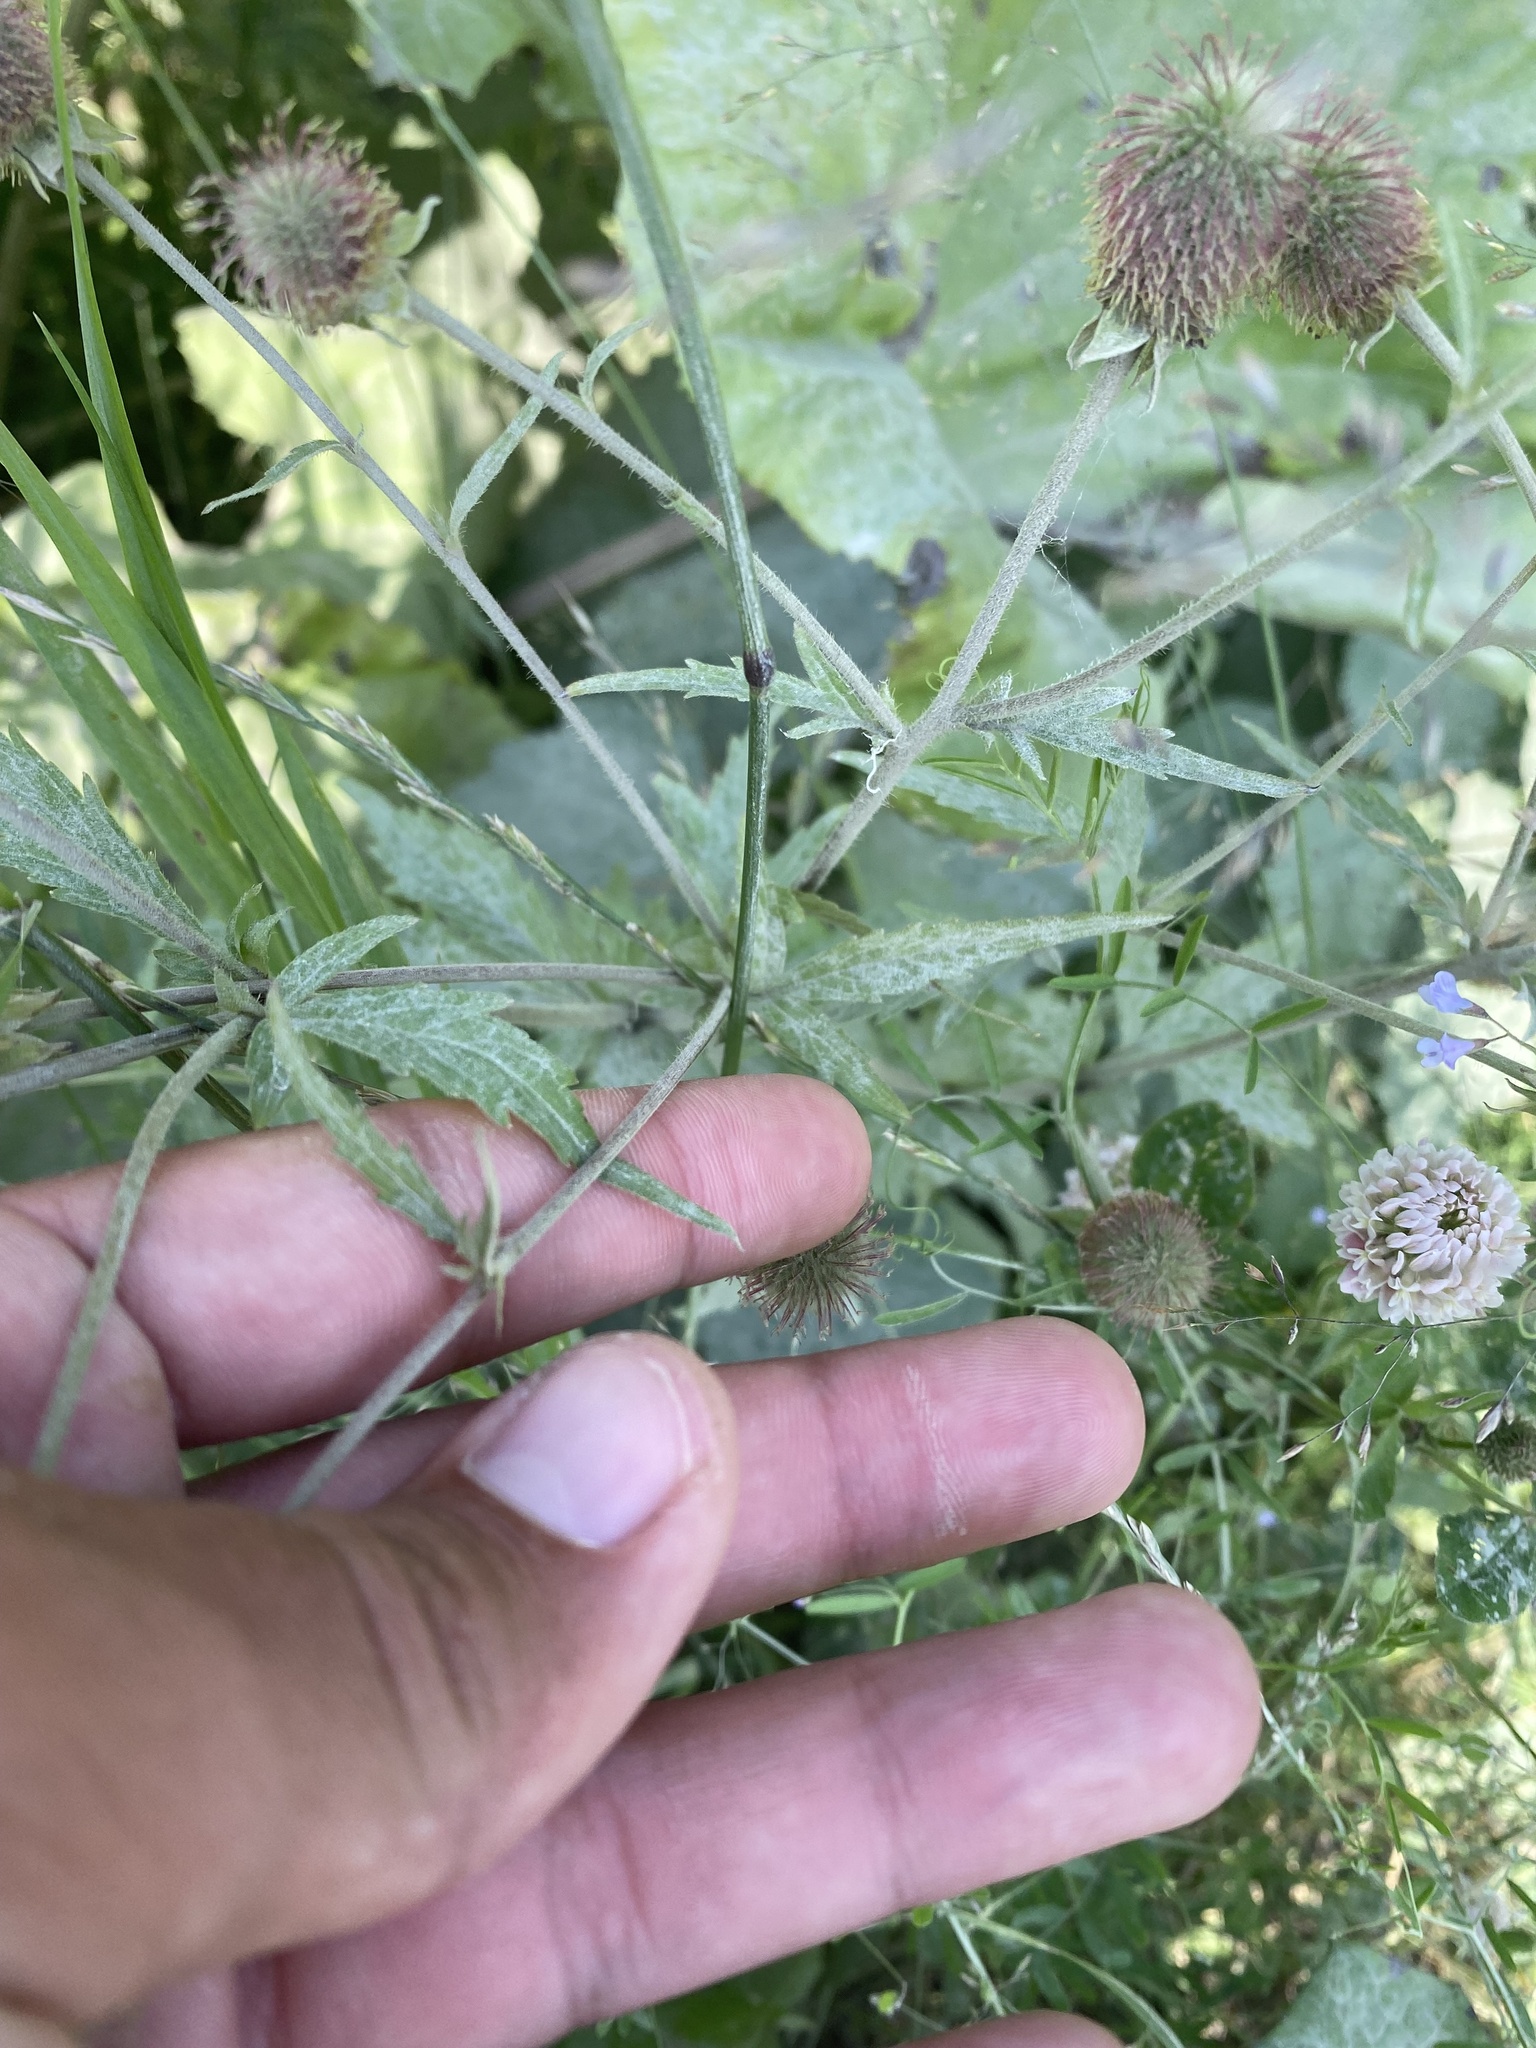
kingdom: Plantae
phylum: Tracheophyta
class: Magnoliopsida
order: Rosales
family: Rosaceae
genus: Geum
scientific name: Geum aleppicum
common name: Yellow avens
